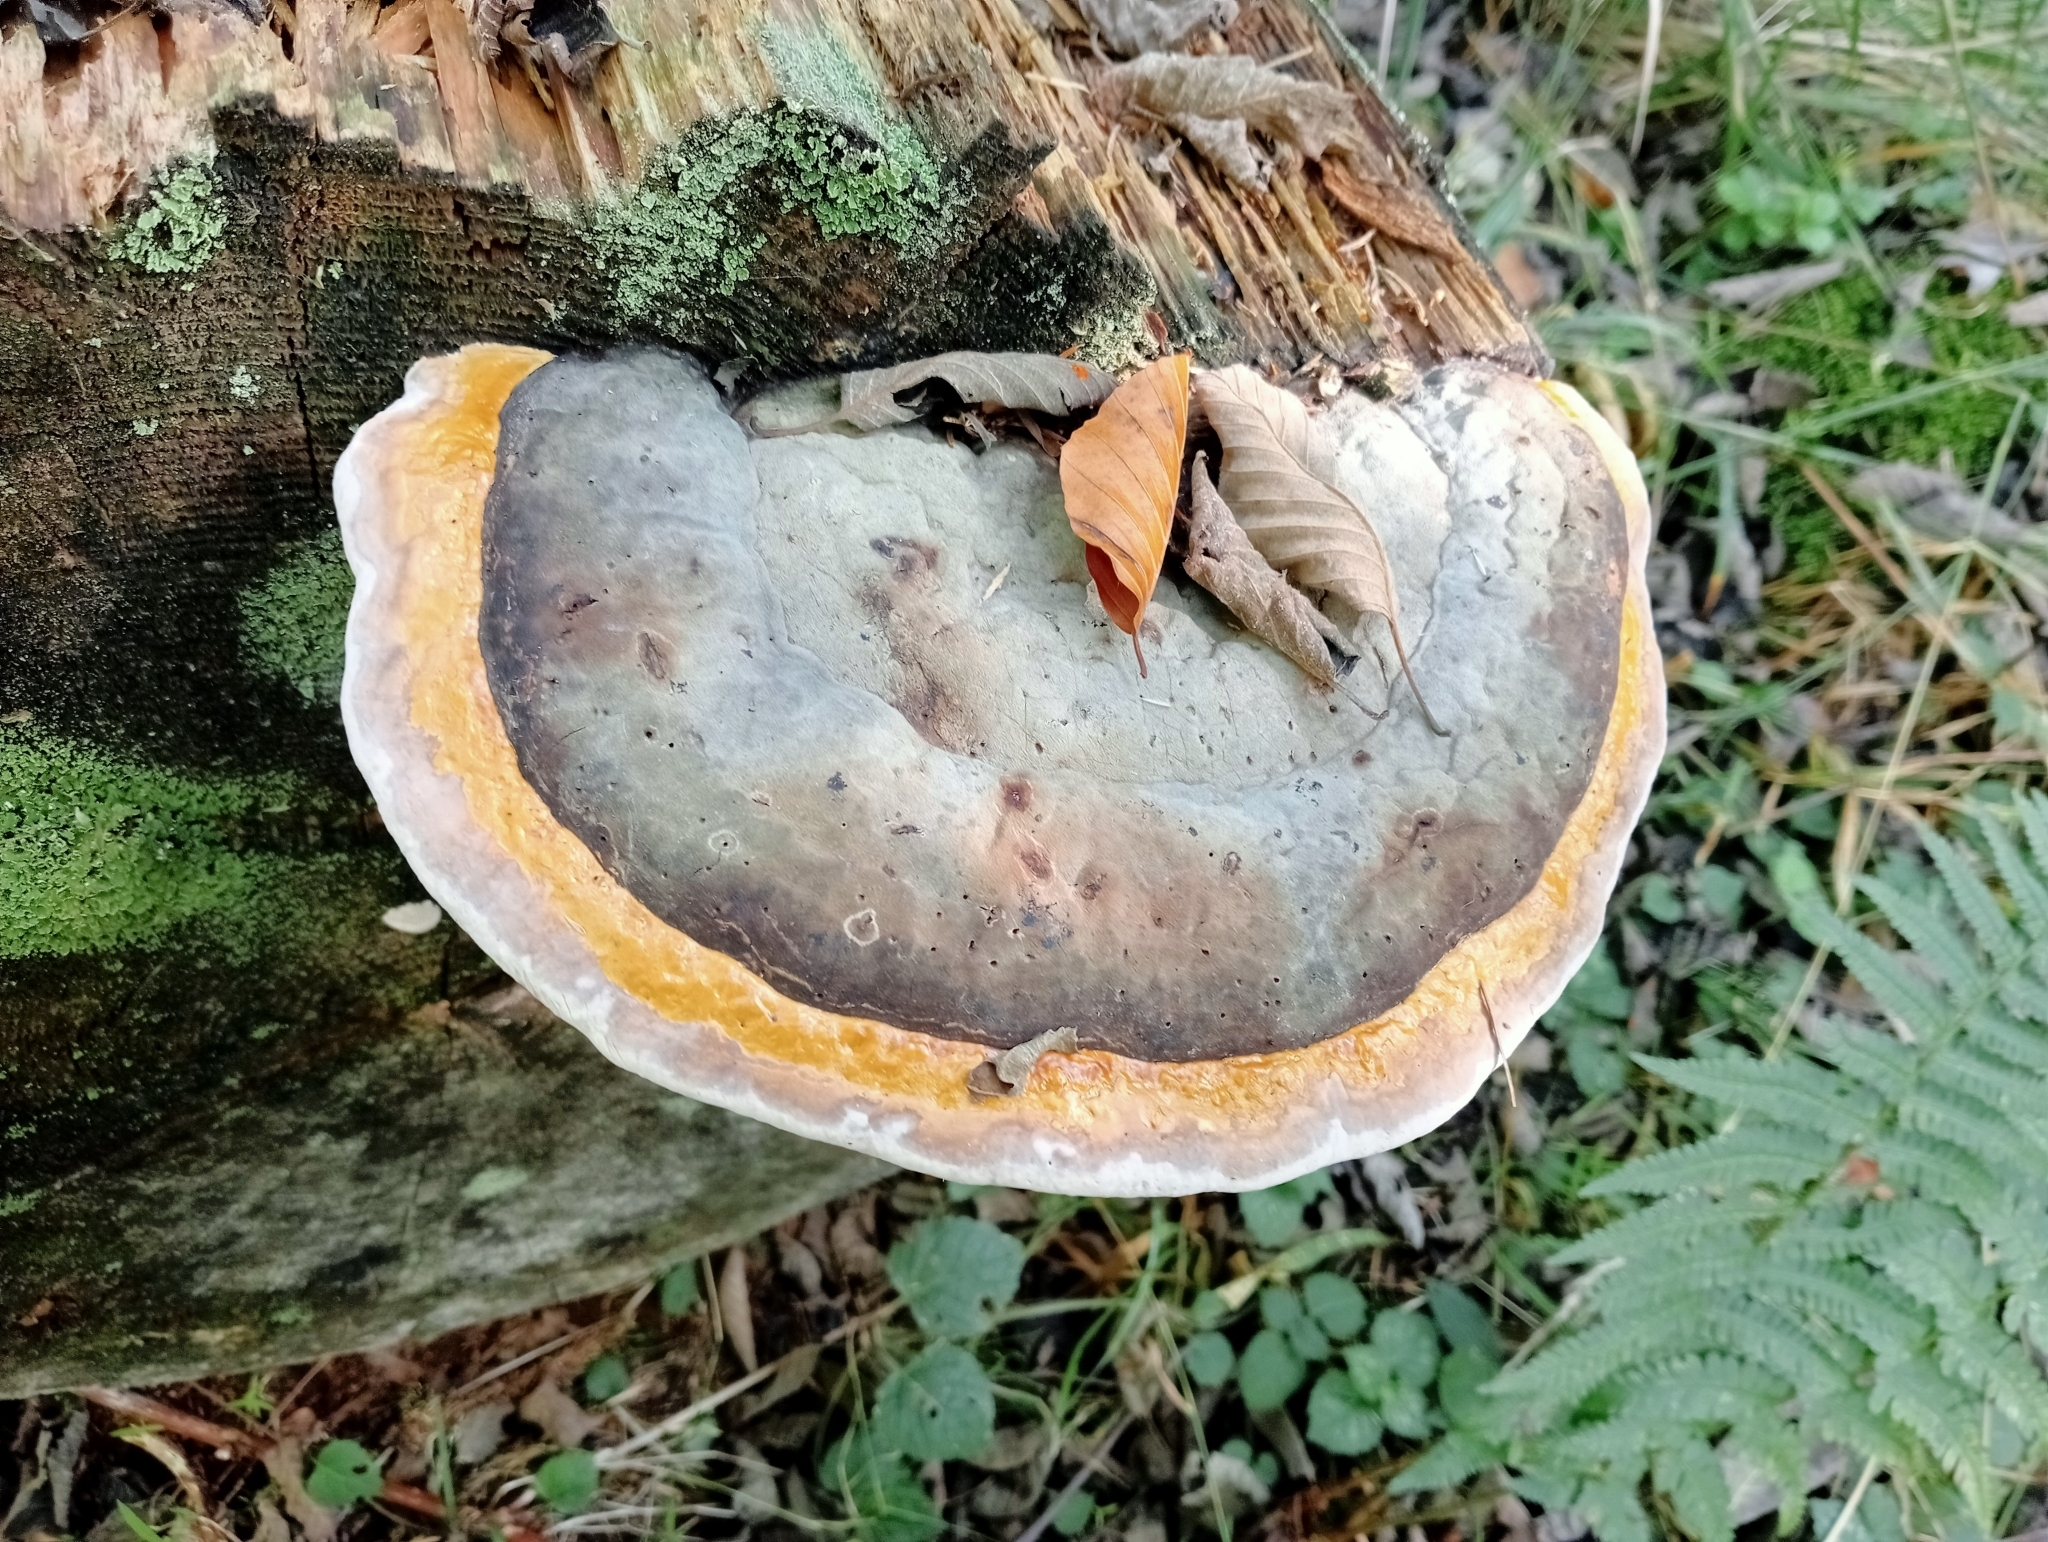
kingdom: Fungi
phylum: Basidiomycota
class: Agaricomycetes
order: Polyporales
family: Fomitopsidaceae
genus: Fomitopsis
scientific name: Fomitopsis pinicola
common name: Red-belted bracket
